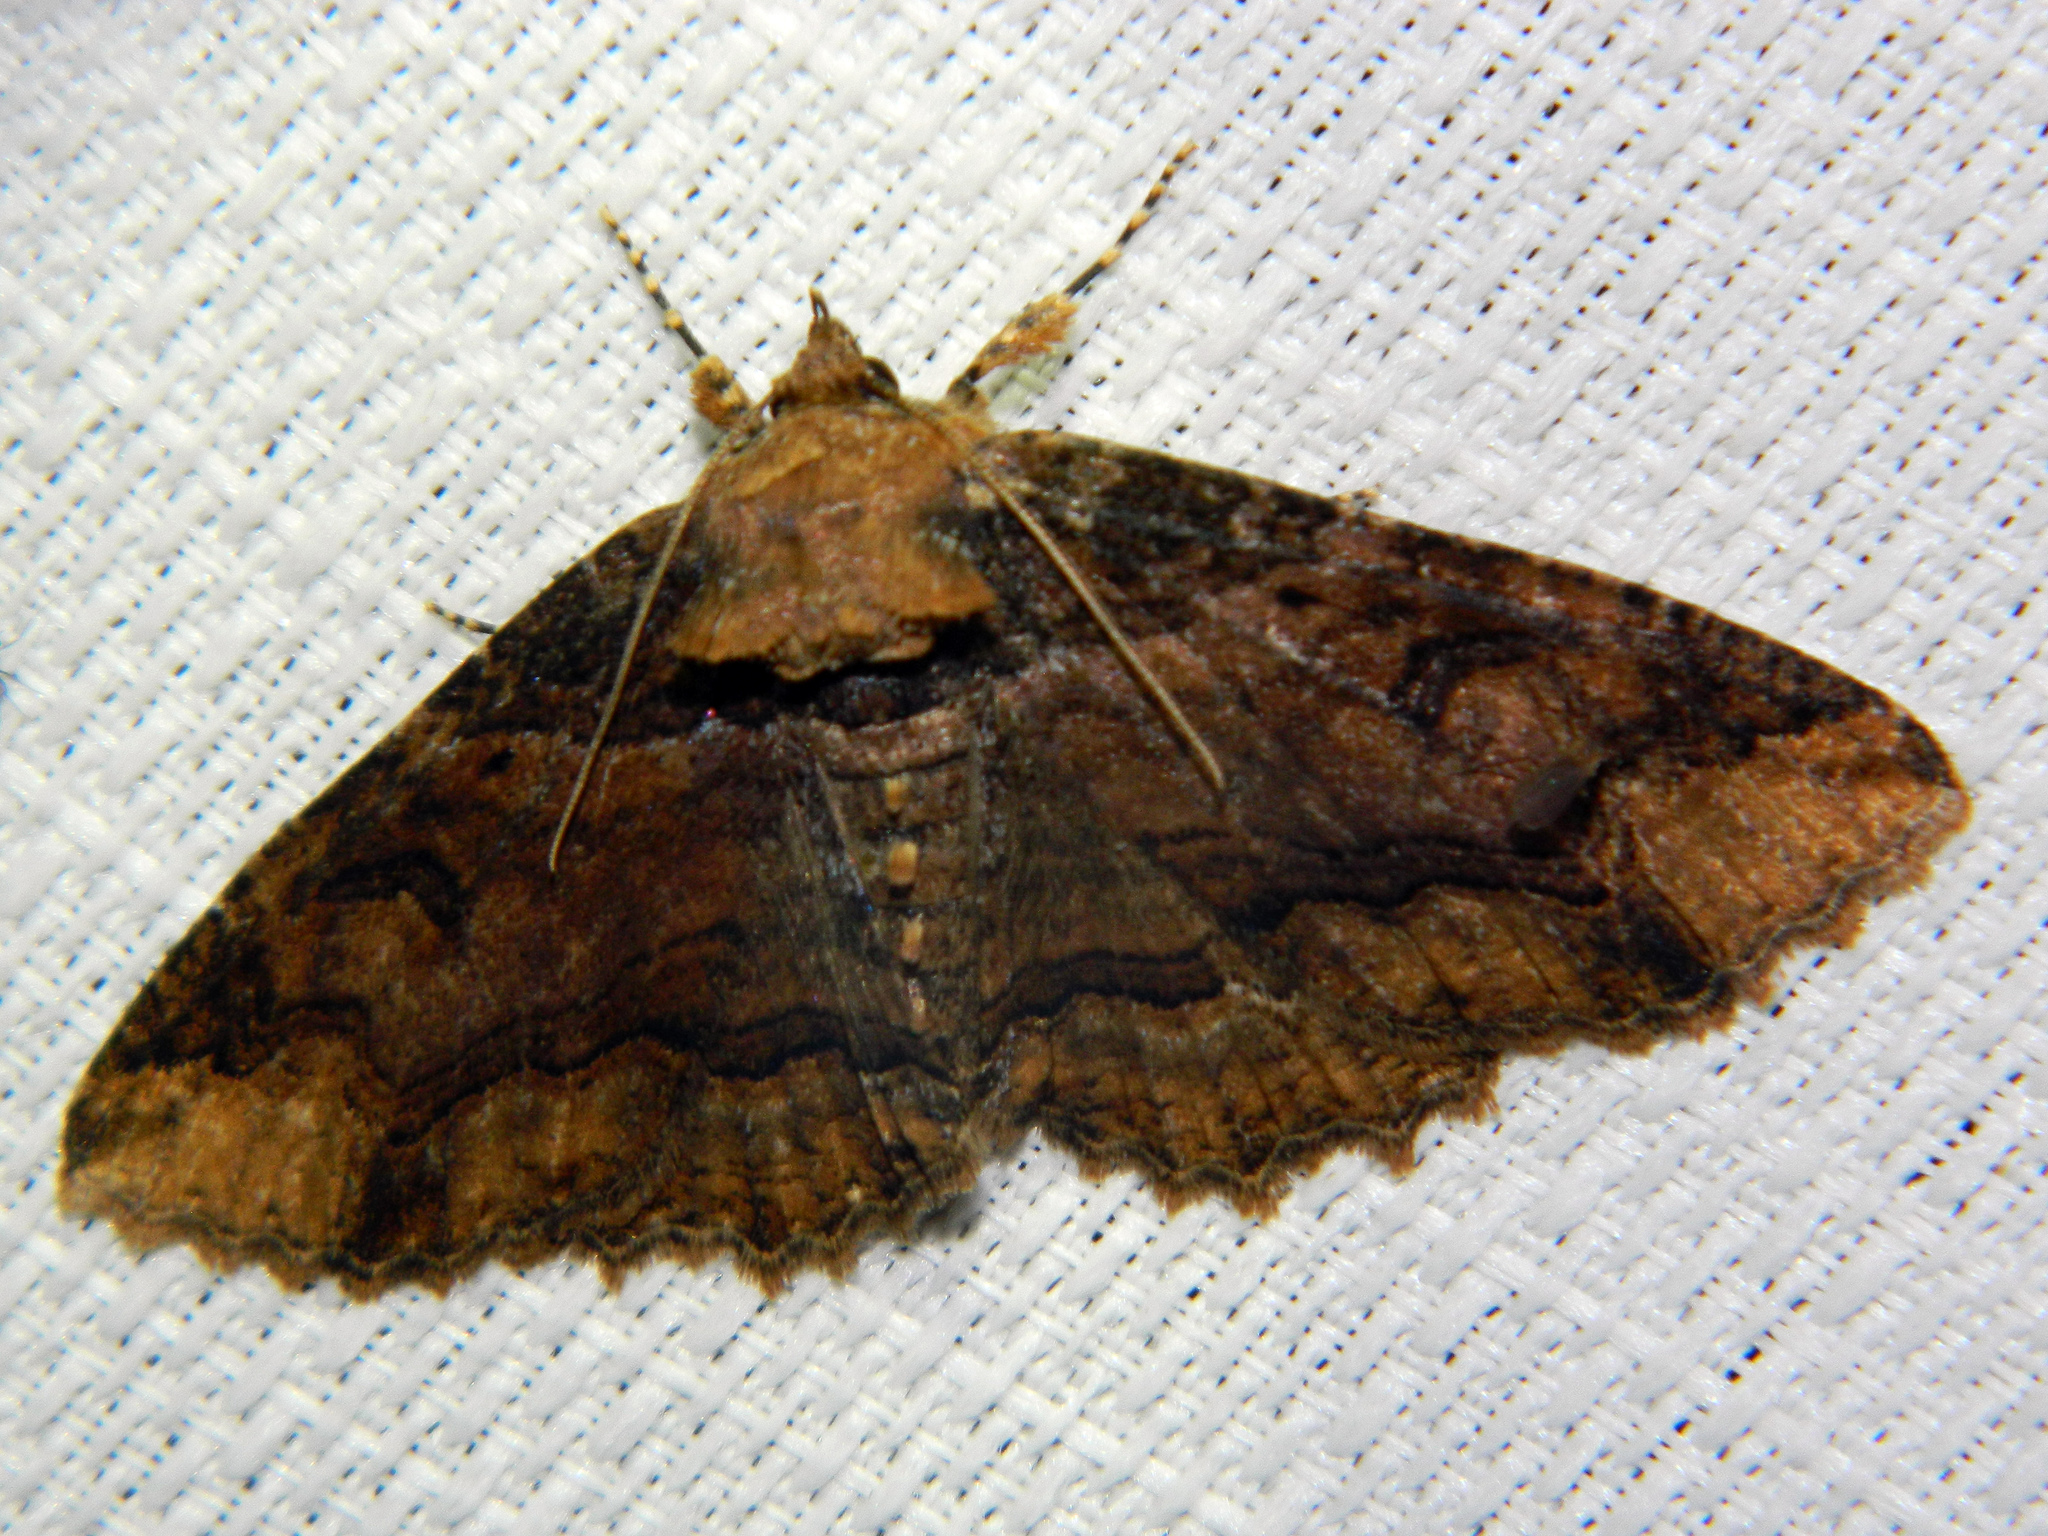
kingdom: Animalia
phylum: Arthropoda
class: Insecta
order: Lepidoptera
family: Erebidae
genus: Zale
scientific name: Zale minerea
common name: Colorful zale moth
